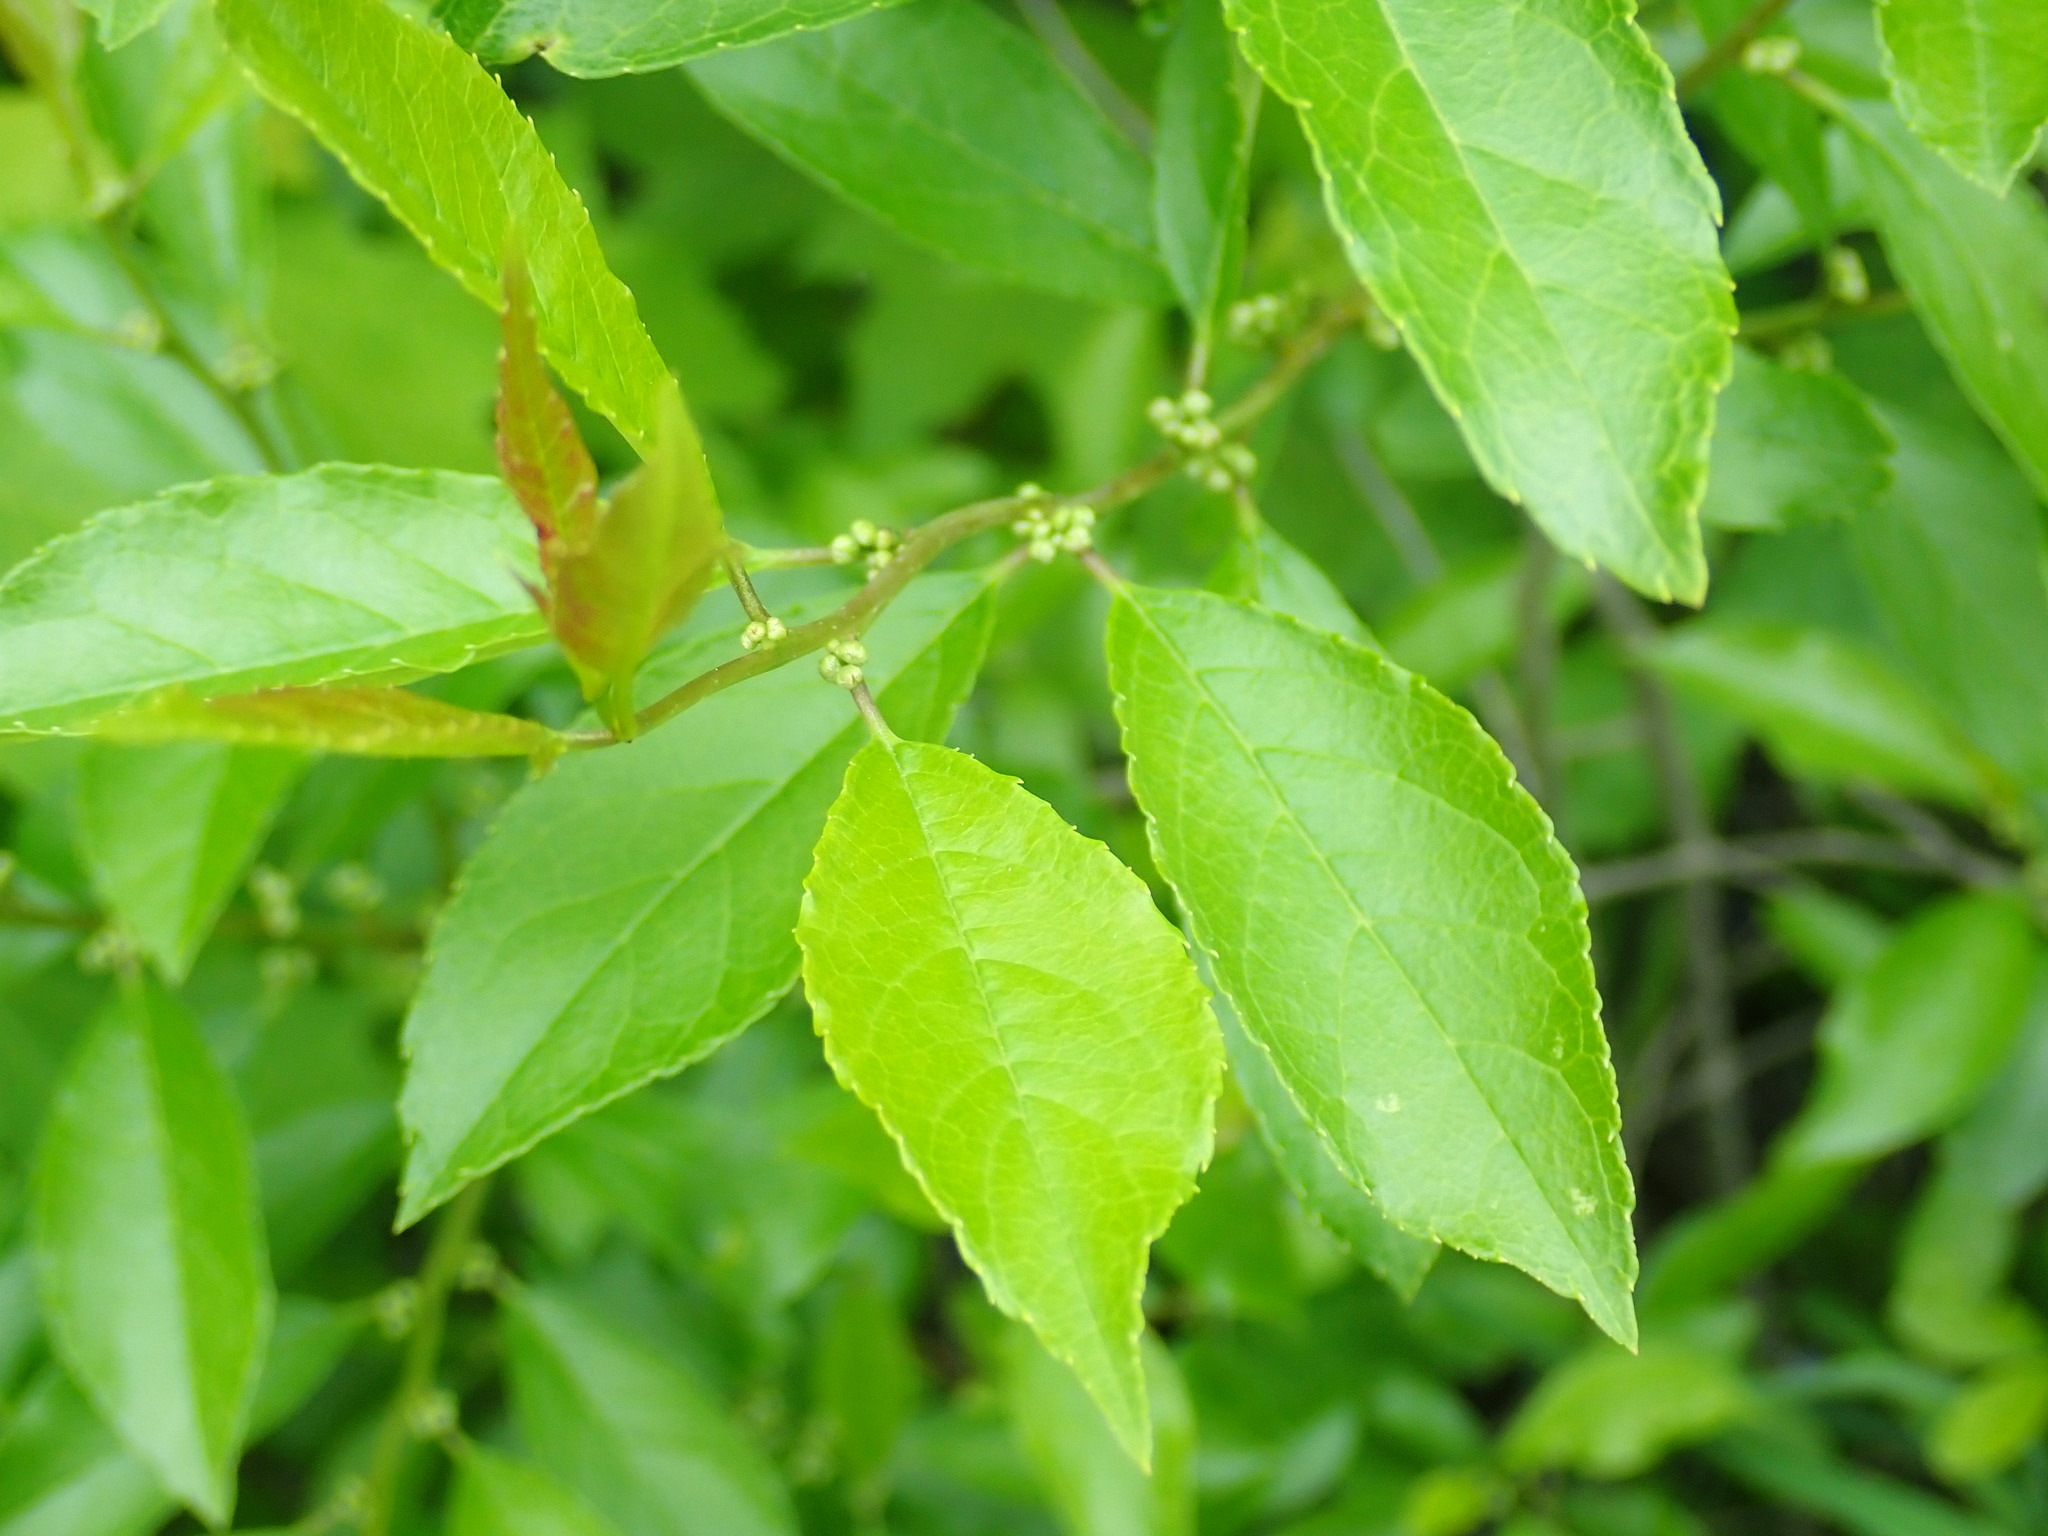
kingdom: Plantae
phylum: Tracheophyta
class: Magnoliopsida
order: Aquifoliales
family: Aquifoliaceae
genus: Ilex
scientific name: Ilex verticillata
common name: Virginia winterberry
